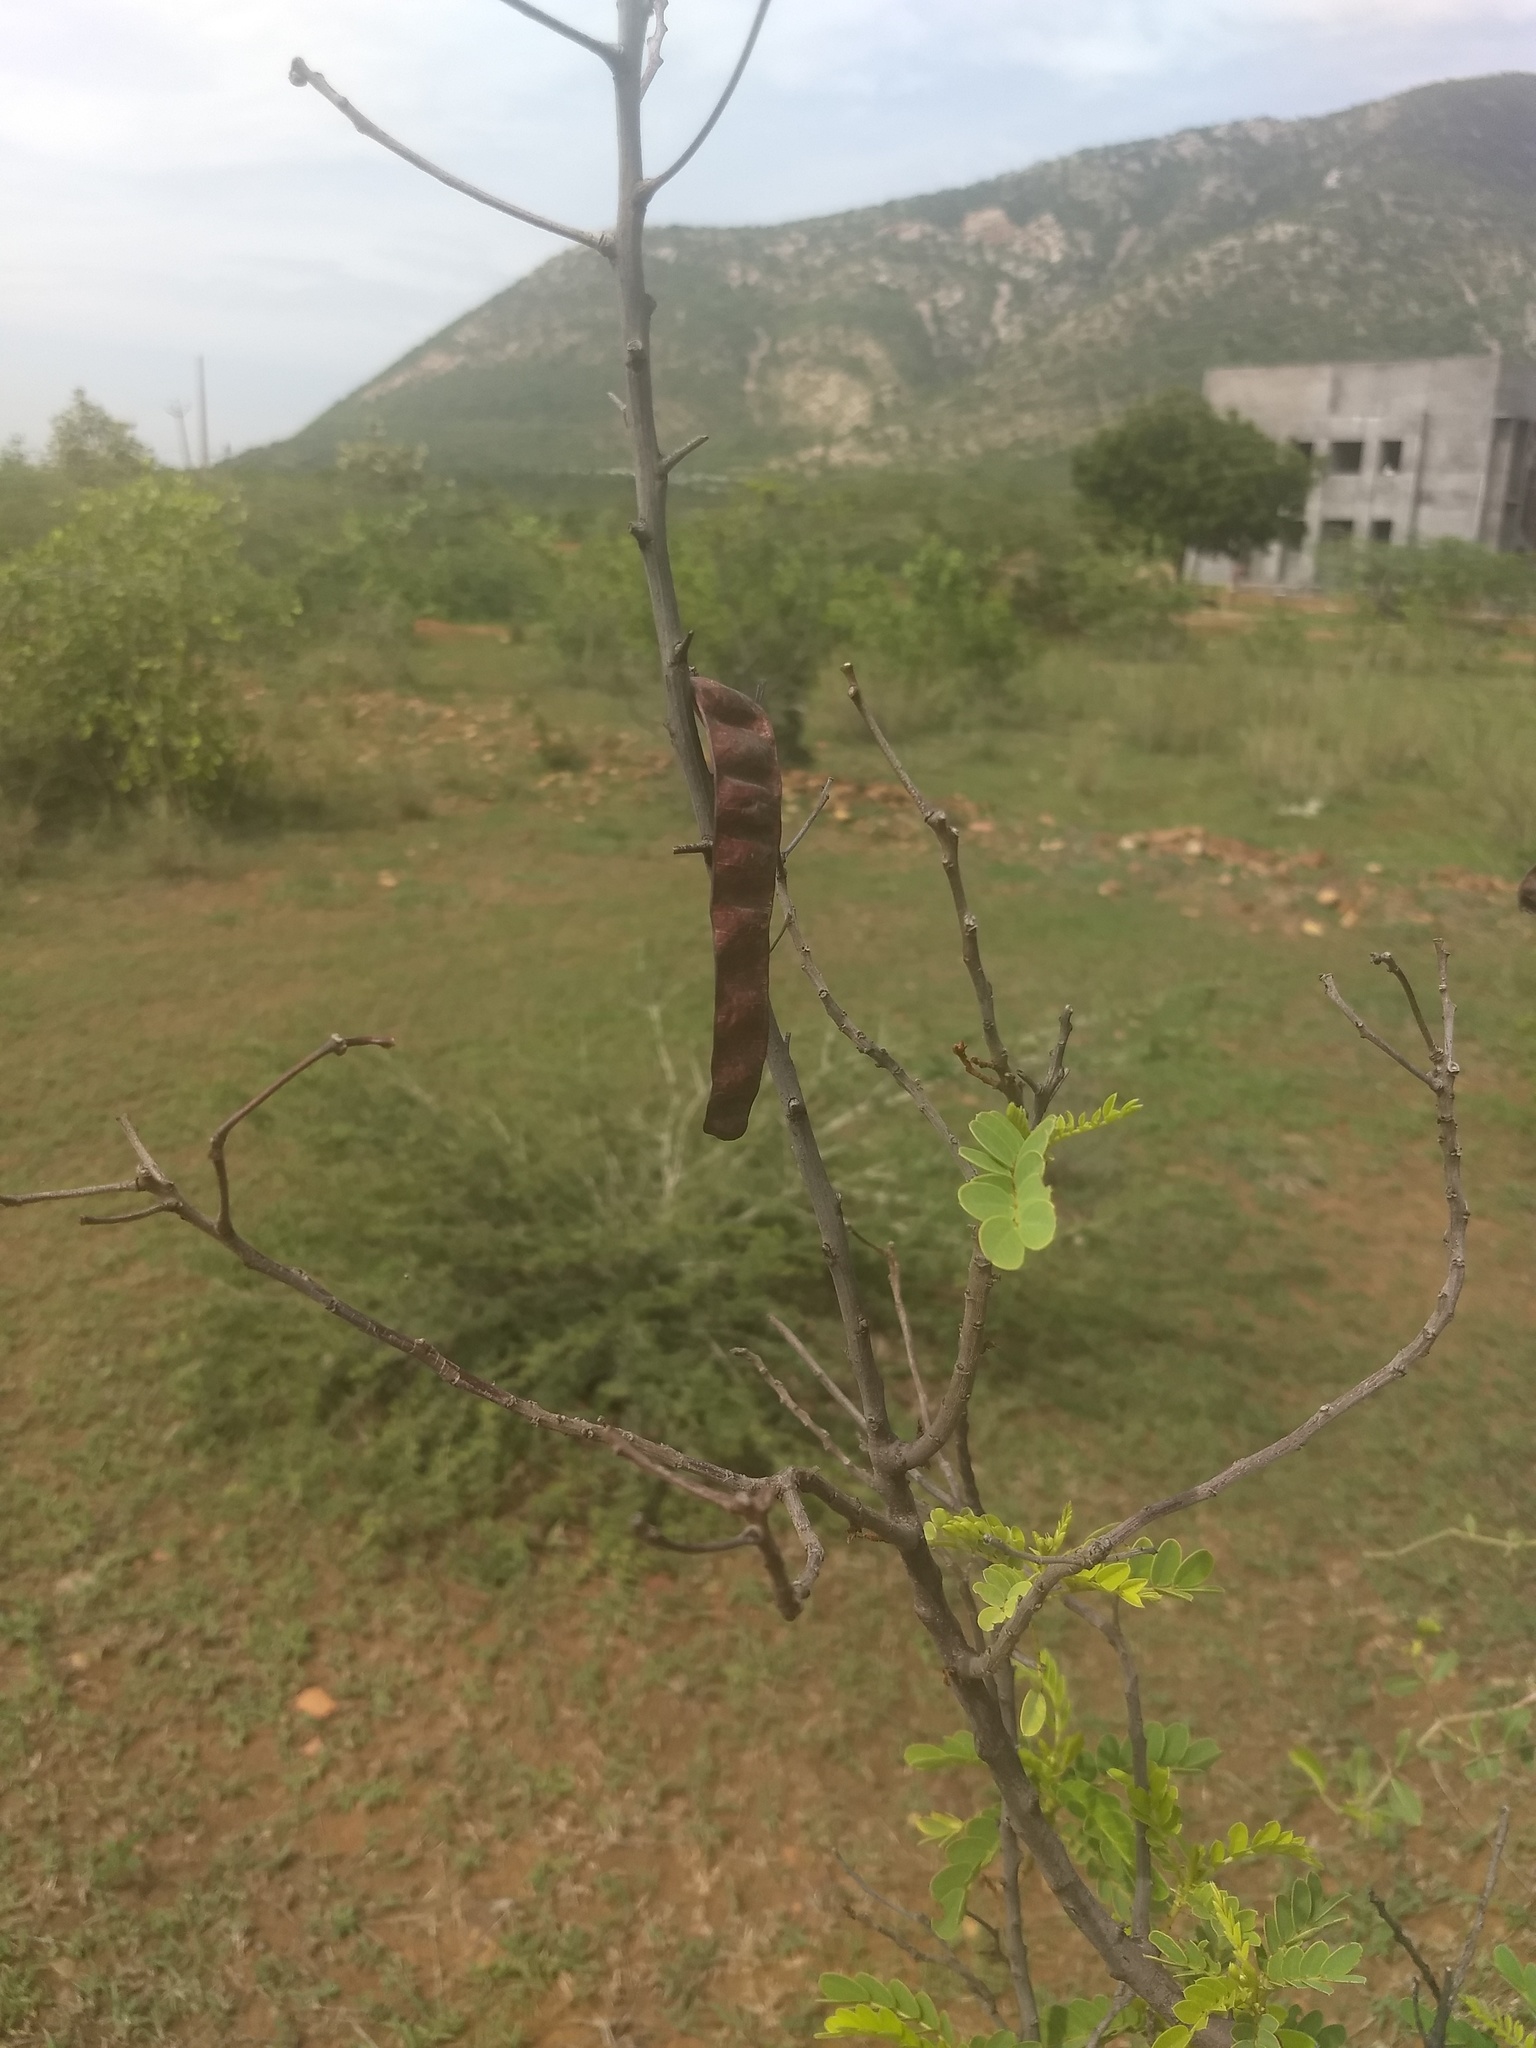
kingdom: Plantae
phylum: Tracheophyta
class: Magnoliopsida
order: Fabales
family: Fabaceae
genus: Senna
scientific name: Senna auriculata
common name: Tanner's cassia
